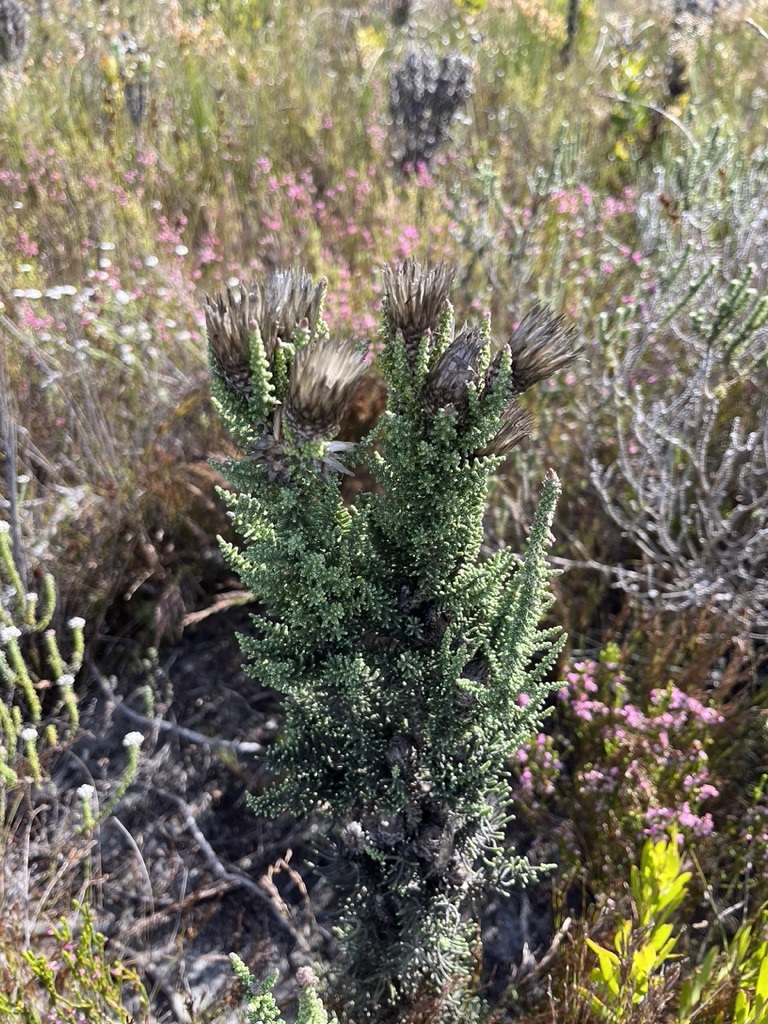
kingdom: Plantae
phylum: Tracheophyta
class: Magnoliopsida
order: Asterales
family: Asteraceae
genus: Phaenocoma
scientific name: Phaenocoma prolifera
